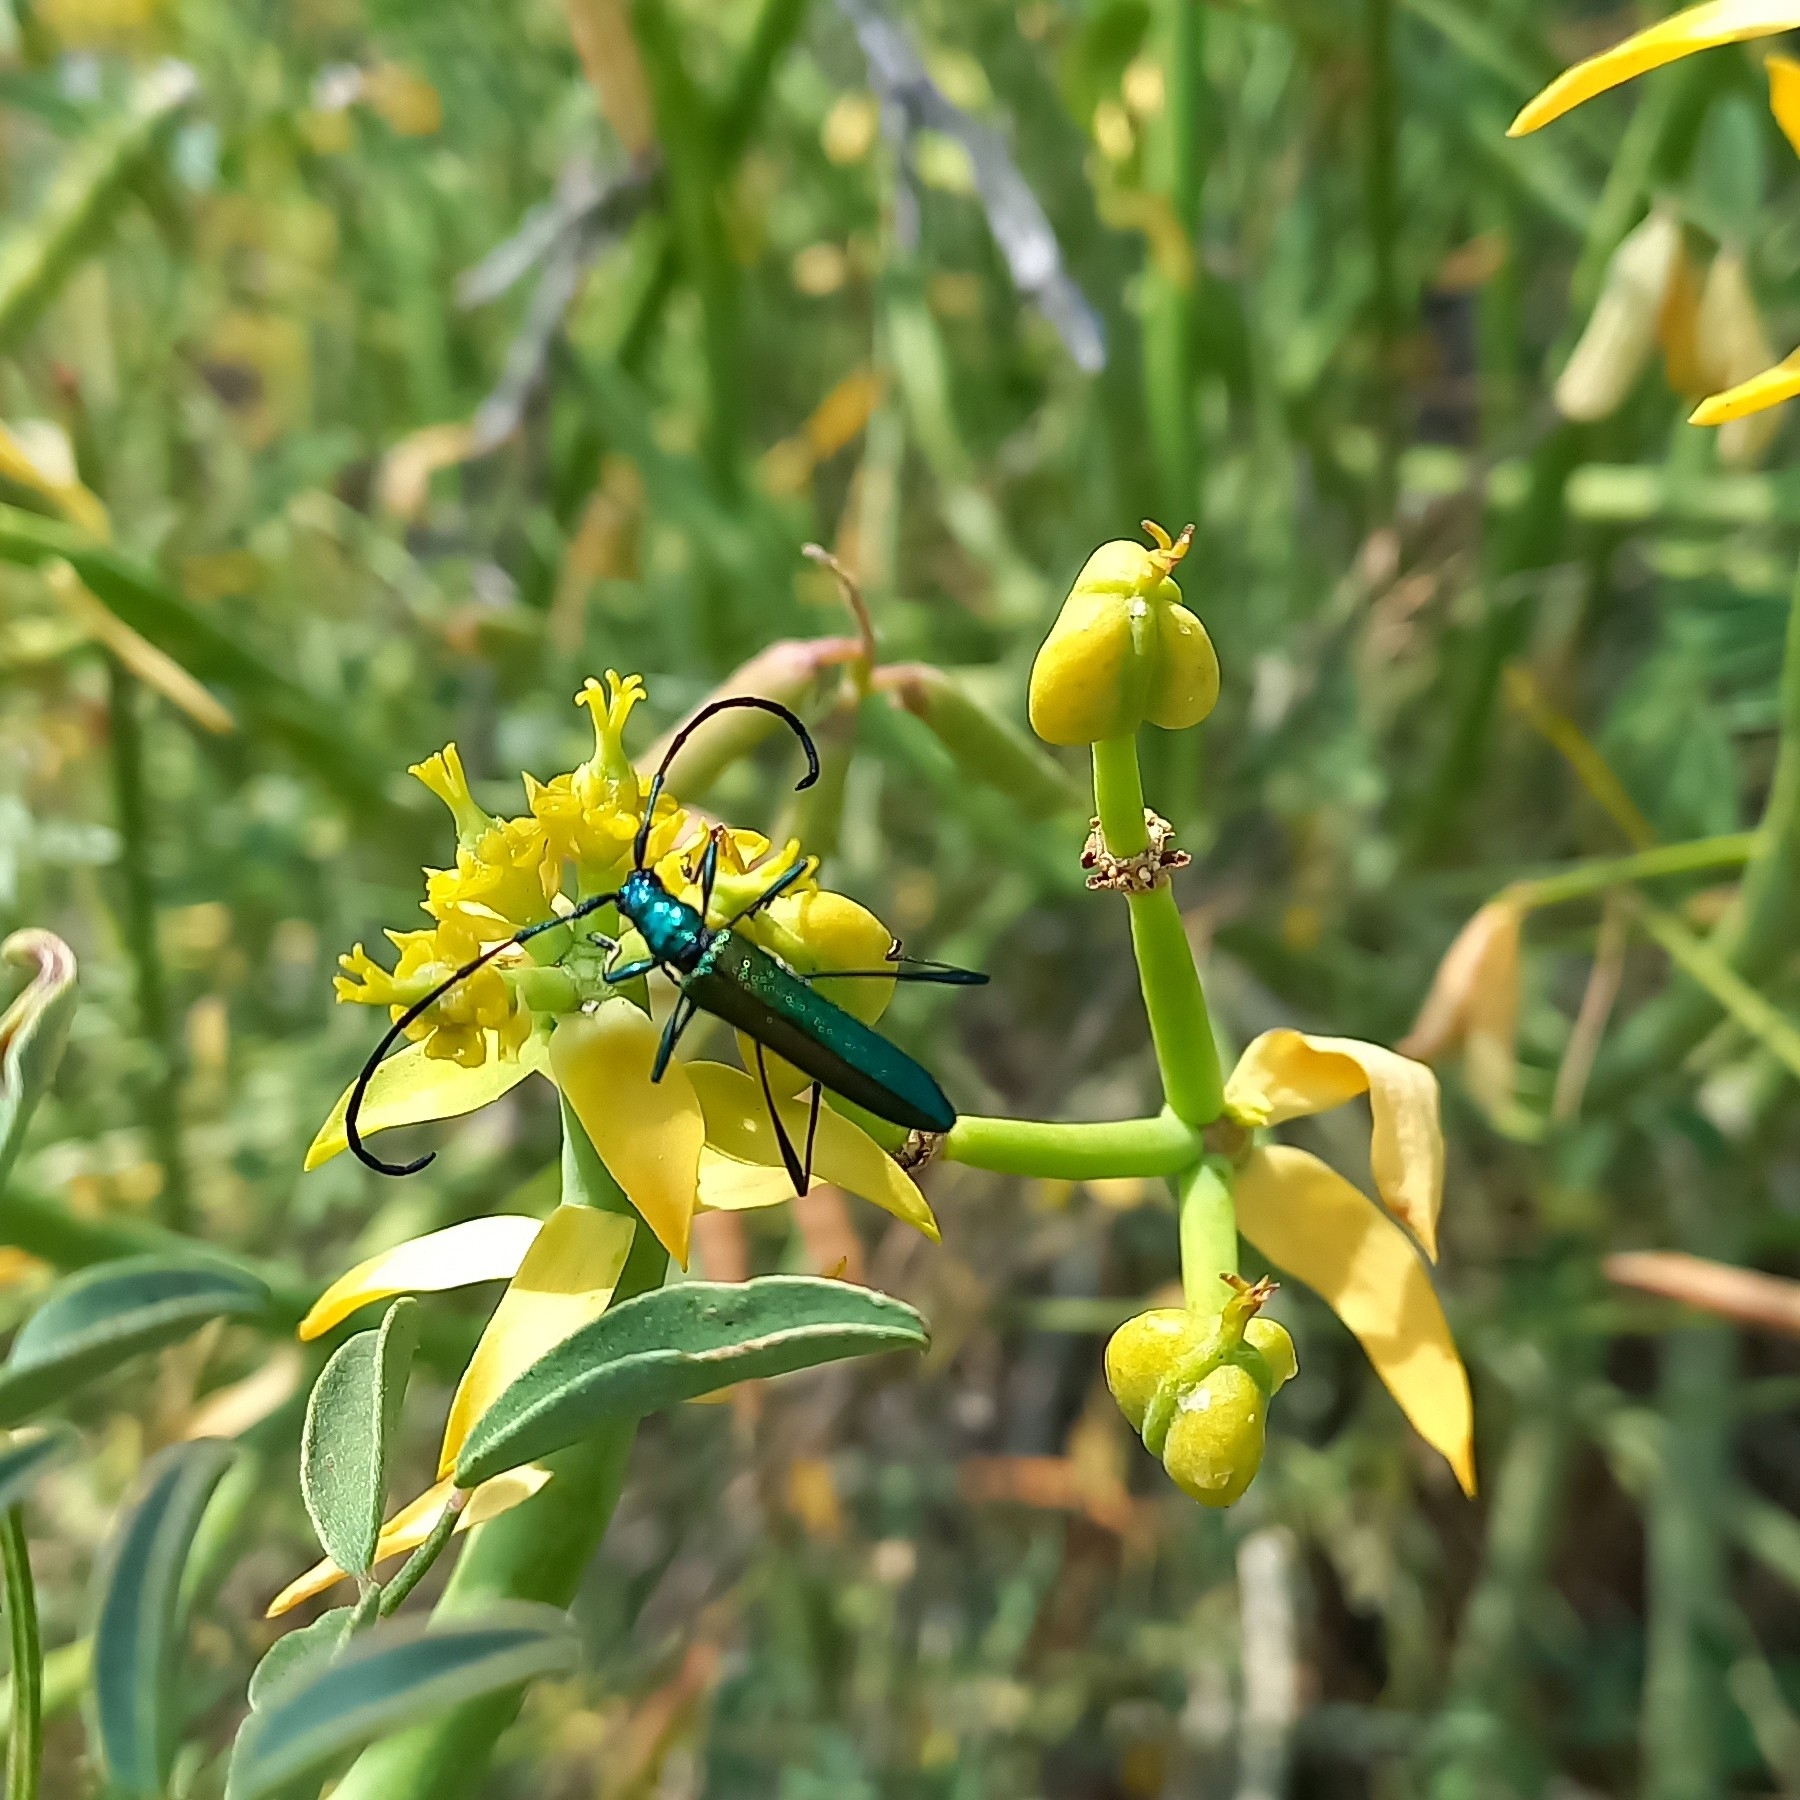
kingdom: Animalia
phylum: Arthropoda
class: Insecta
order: Coleoptera
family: Cerambycidae
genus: Promeces
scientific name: Promeces longipes
